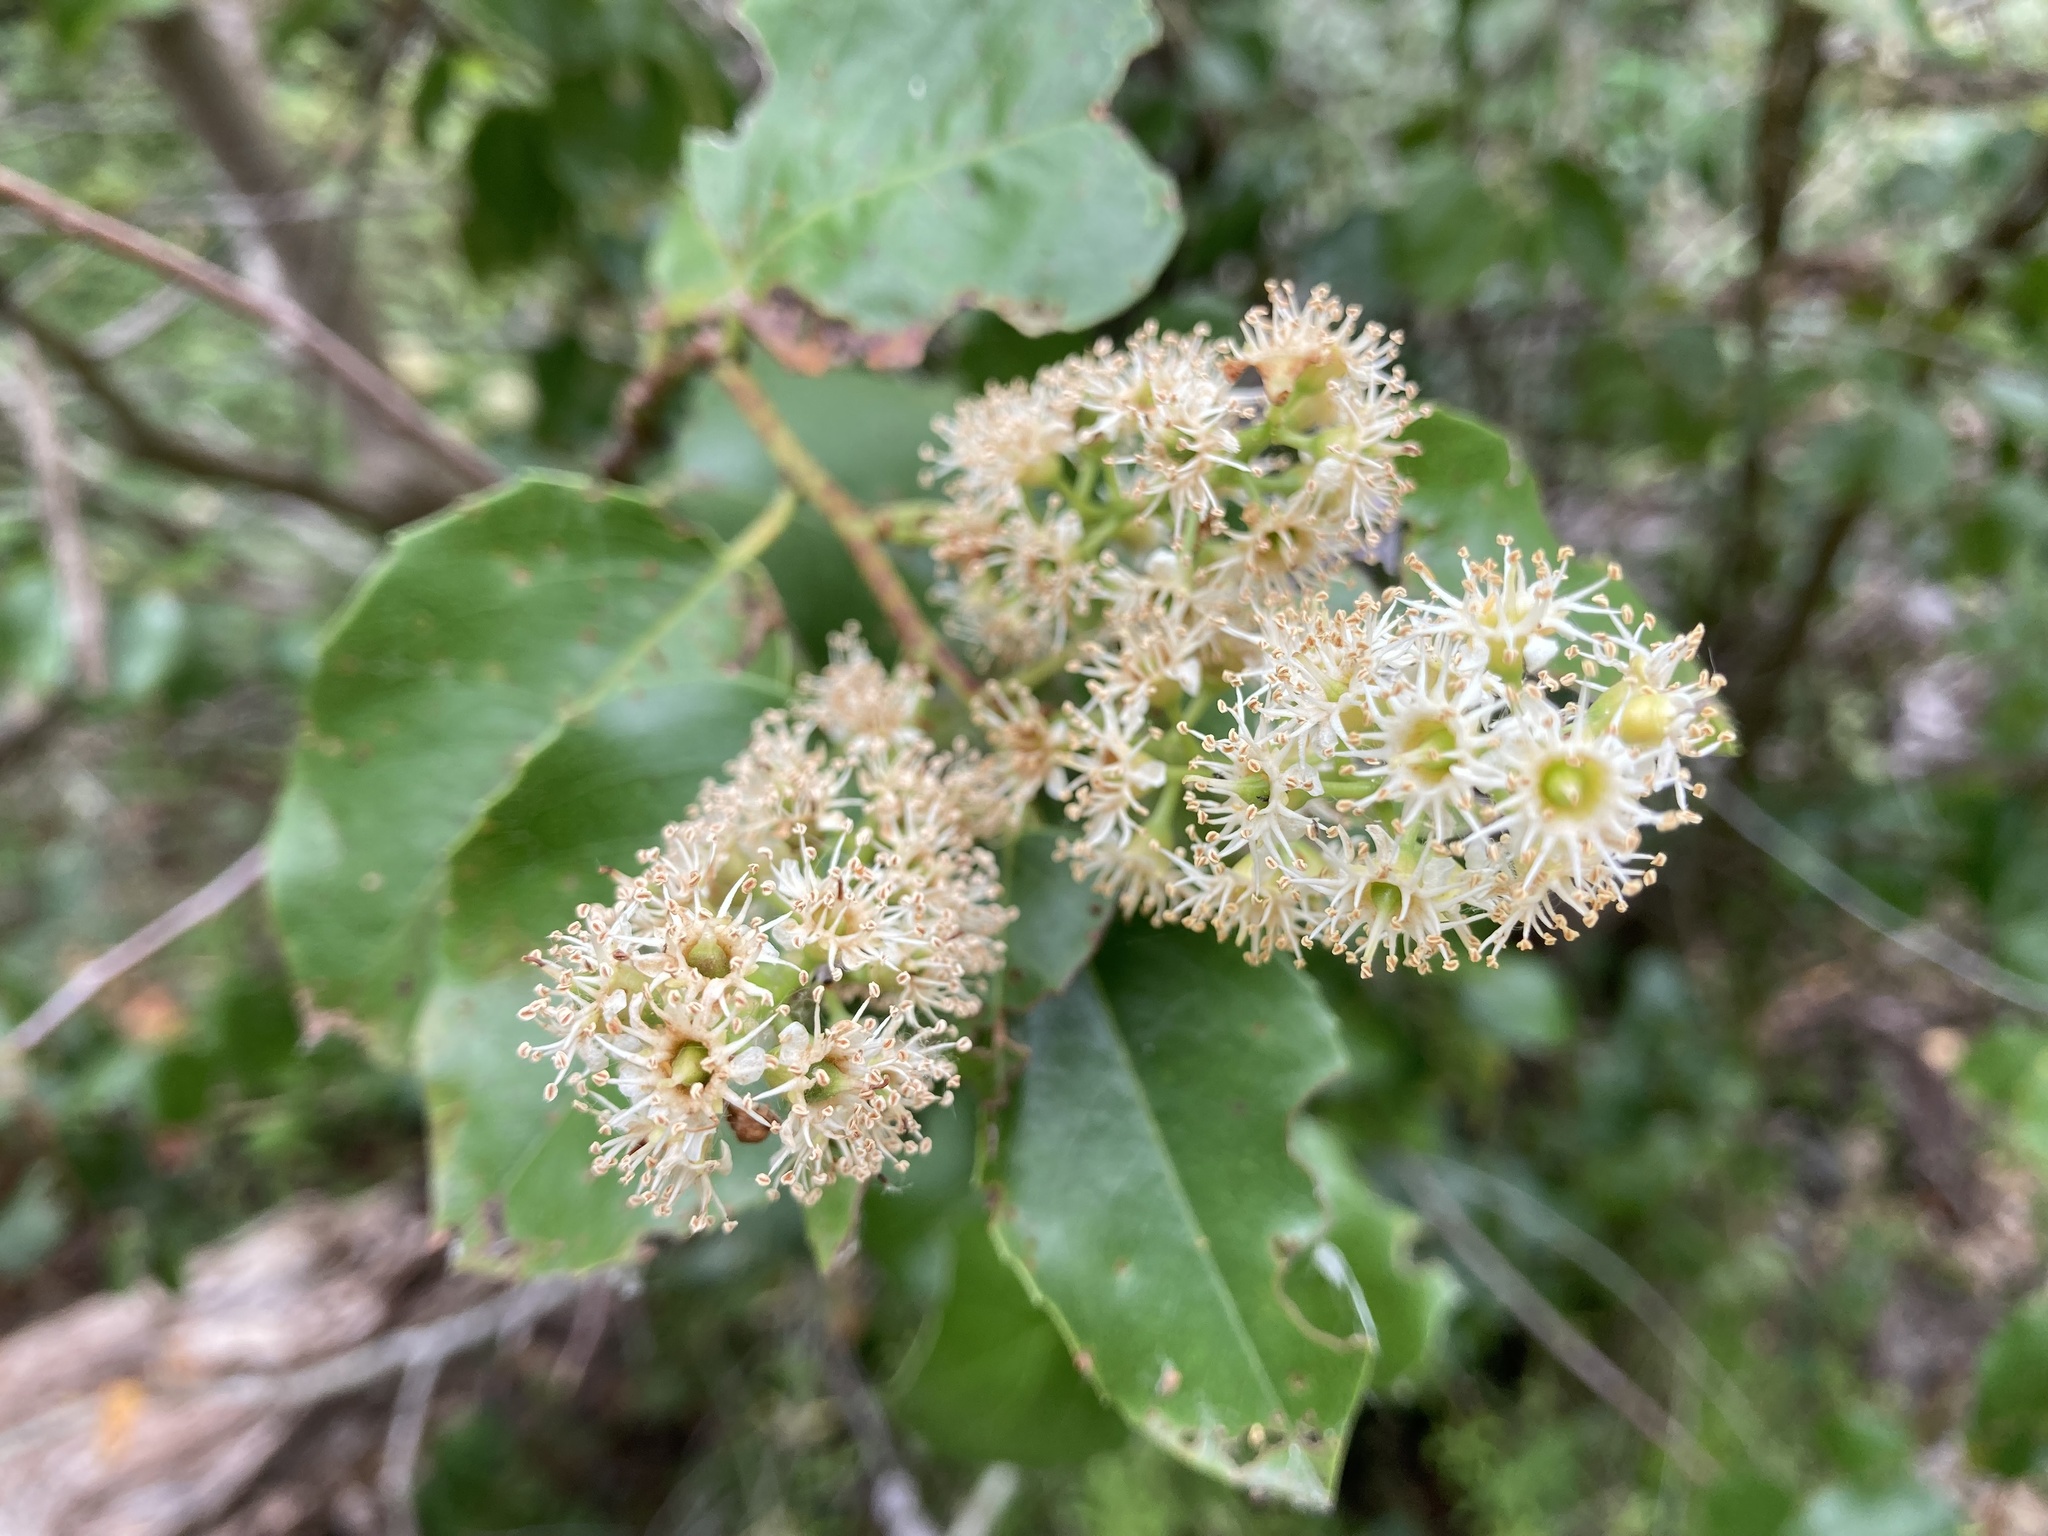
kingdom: Plantae
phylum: Tracheophyta
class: Magnoliopsida
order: Rosales
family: Rosaceae
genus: Prunus
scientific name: Prunus ilicifolia
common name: Hollyleaf cherry
